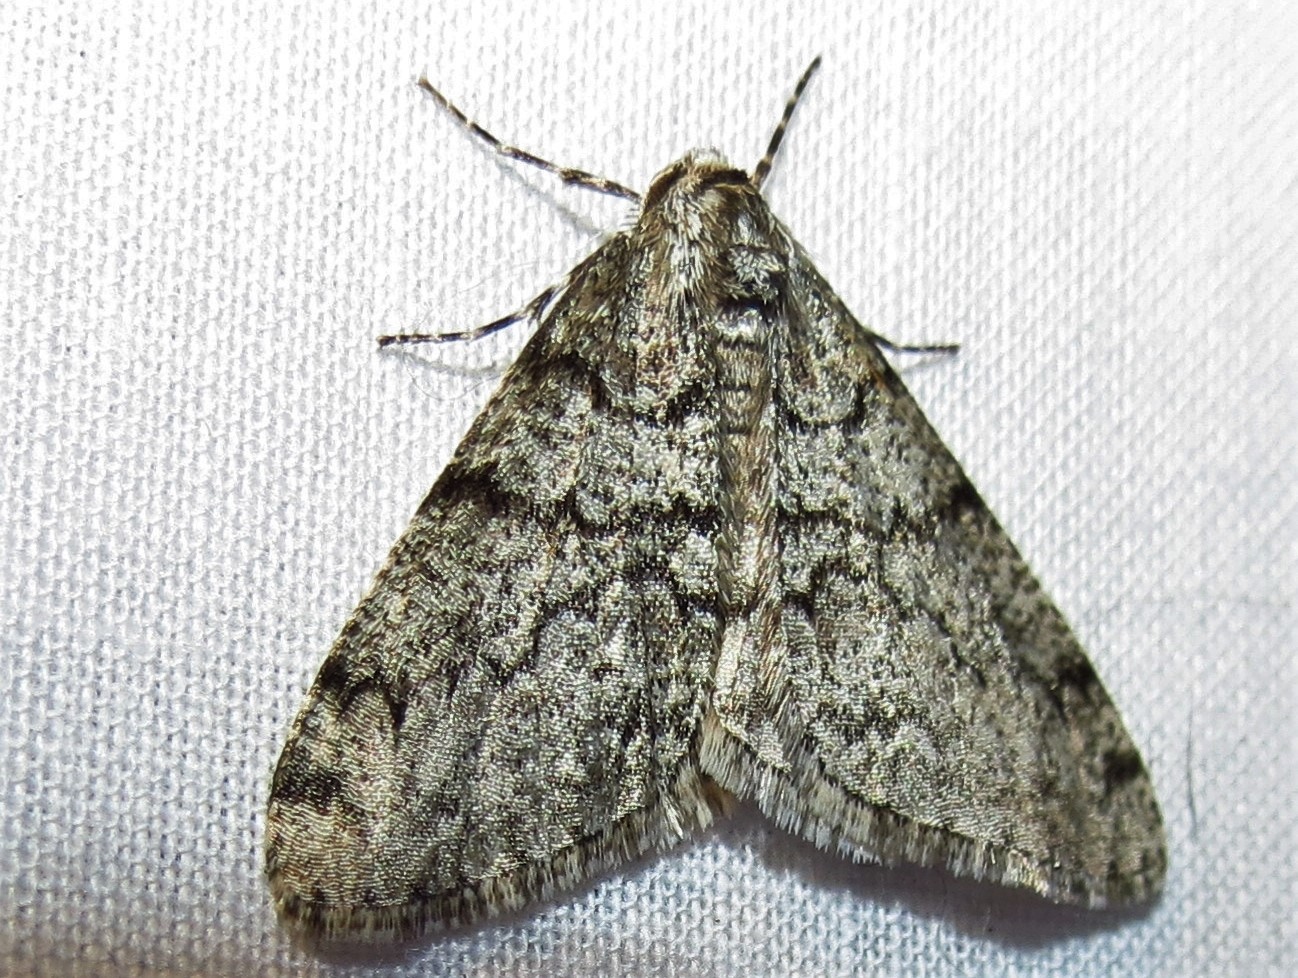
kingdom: Animalia
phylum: Arthropoda
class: Insecta
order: Lepidoptera
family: Geometridae
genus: Phigalia
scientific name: Phigalia denticulata
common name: Toothed phigalia
